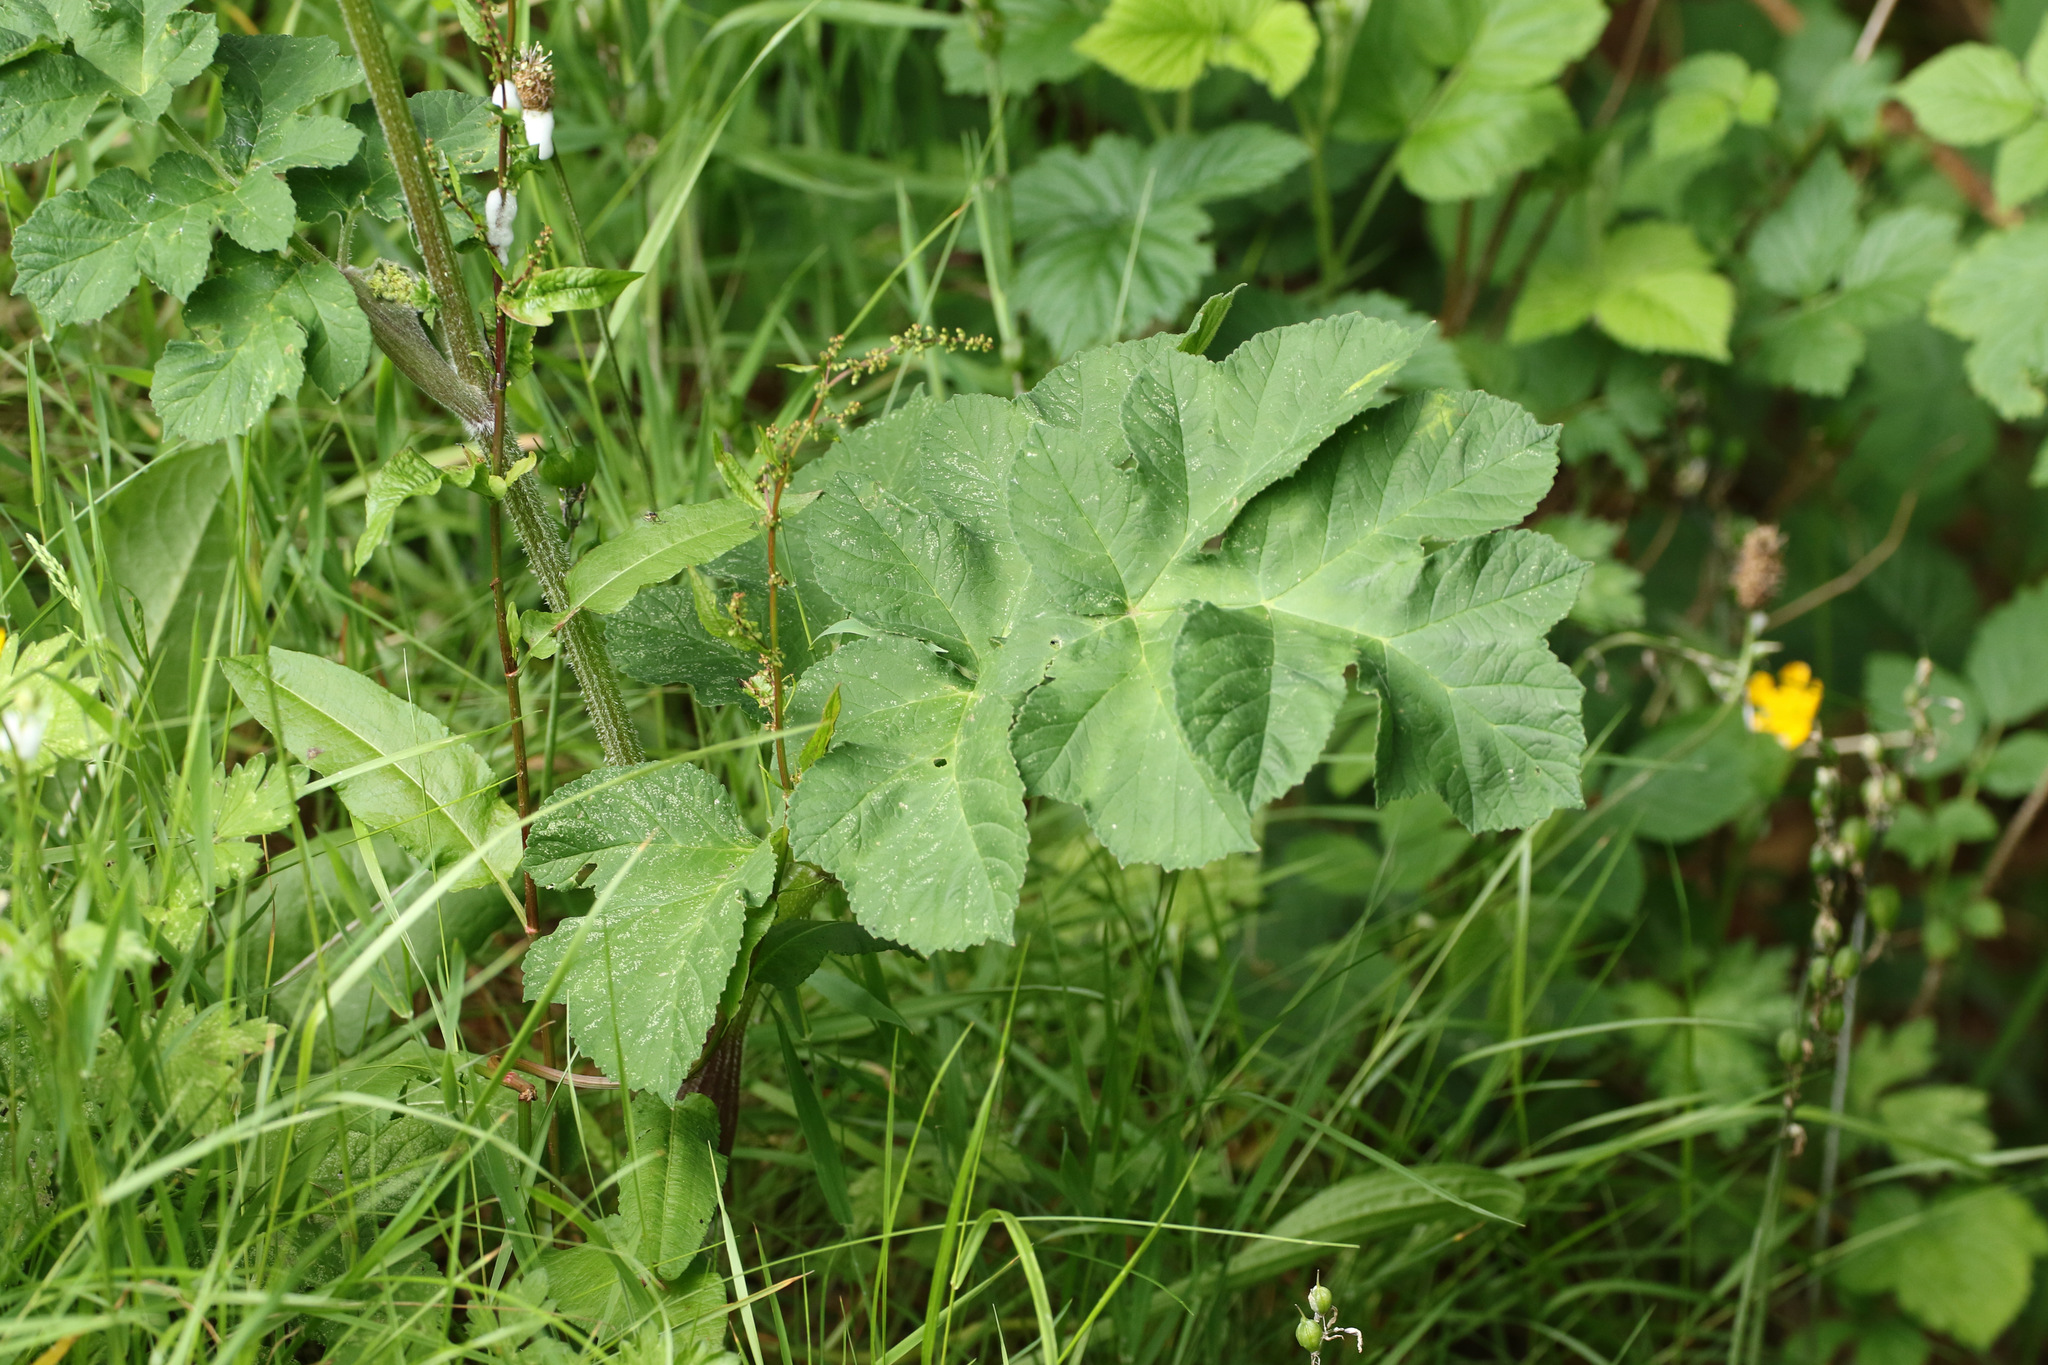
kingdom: Plantae
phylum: Tracheophyta
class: Magnoliopsida
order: Apiales
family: Apiaceae
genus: Heracleum
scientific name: Heracleum sphondylium
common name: Hogweed
